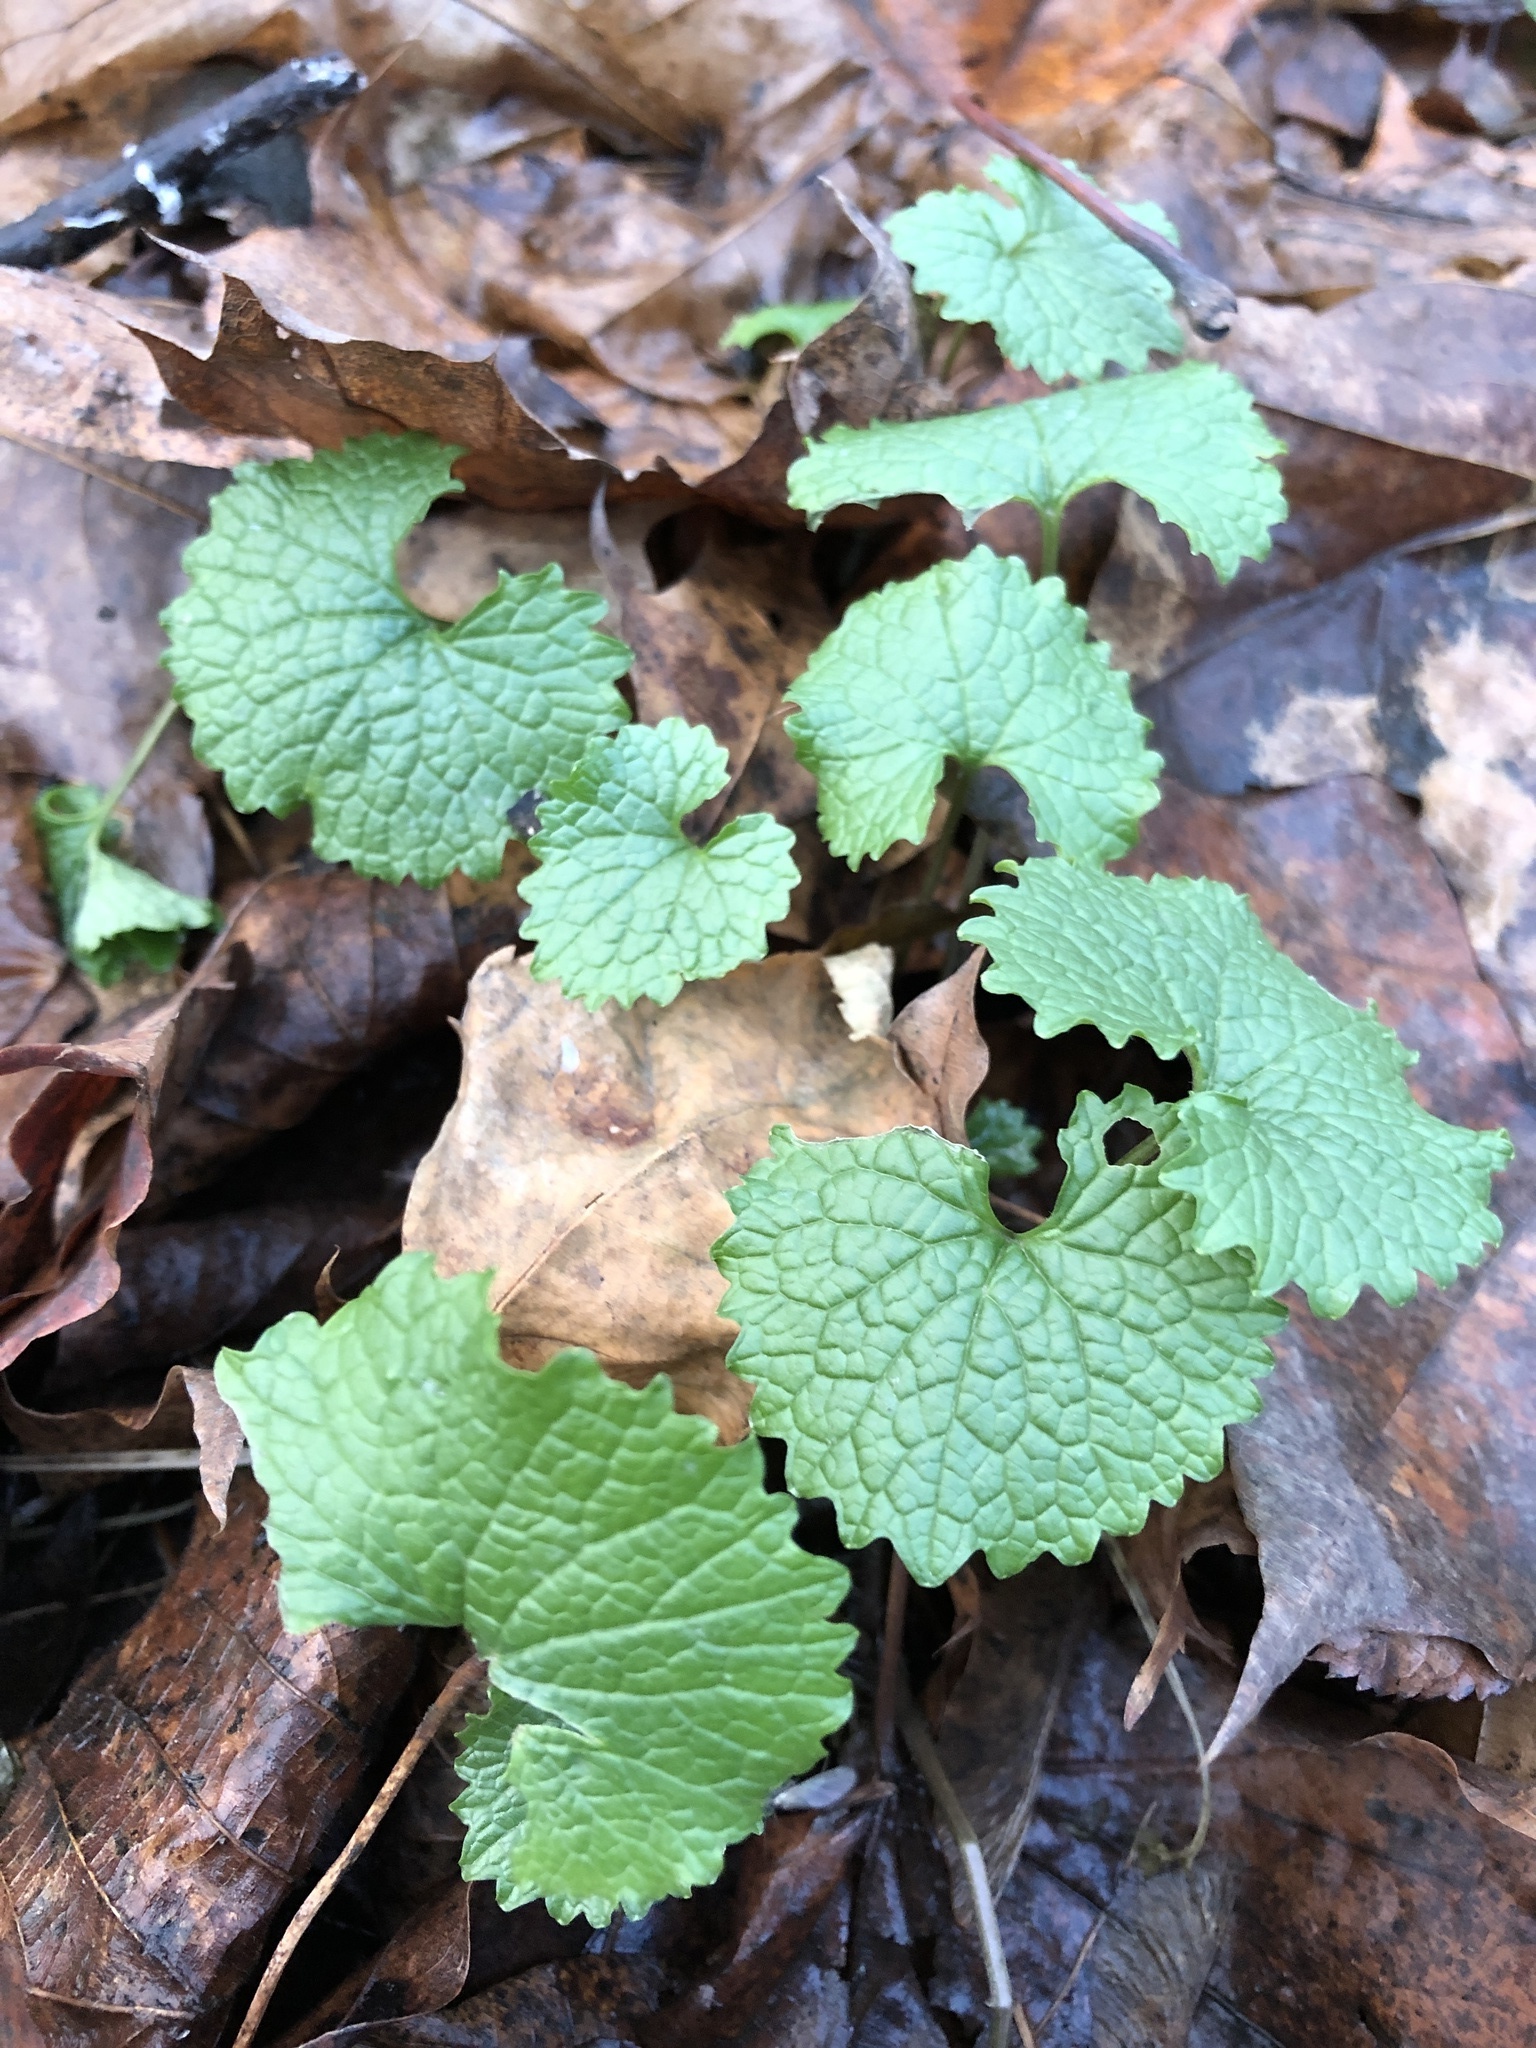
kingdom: Plantae
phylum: Tracheophyta
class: Magnoliopsida
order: Brassicales
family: Brassicaceae
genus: Alliaria
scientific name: Alliaria petiolata
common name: Garlic mustard
